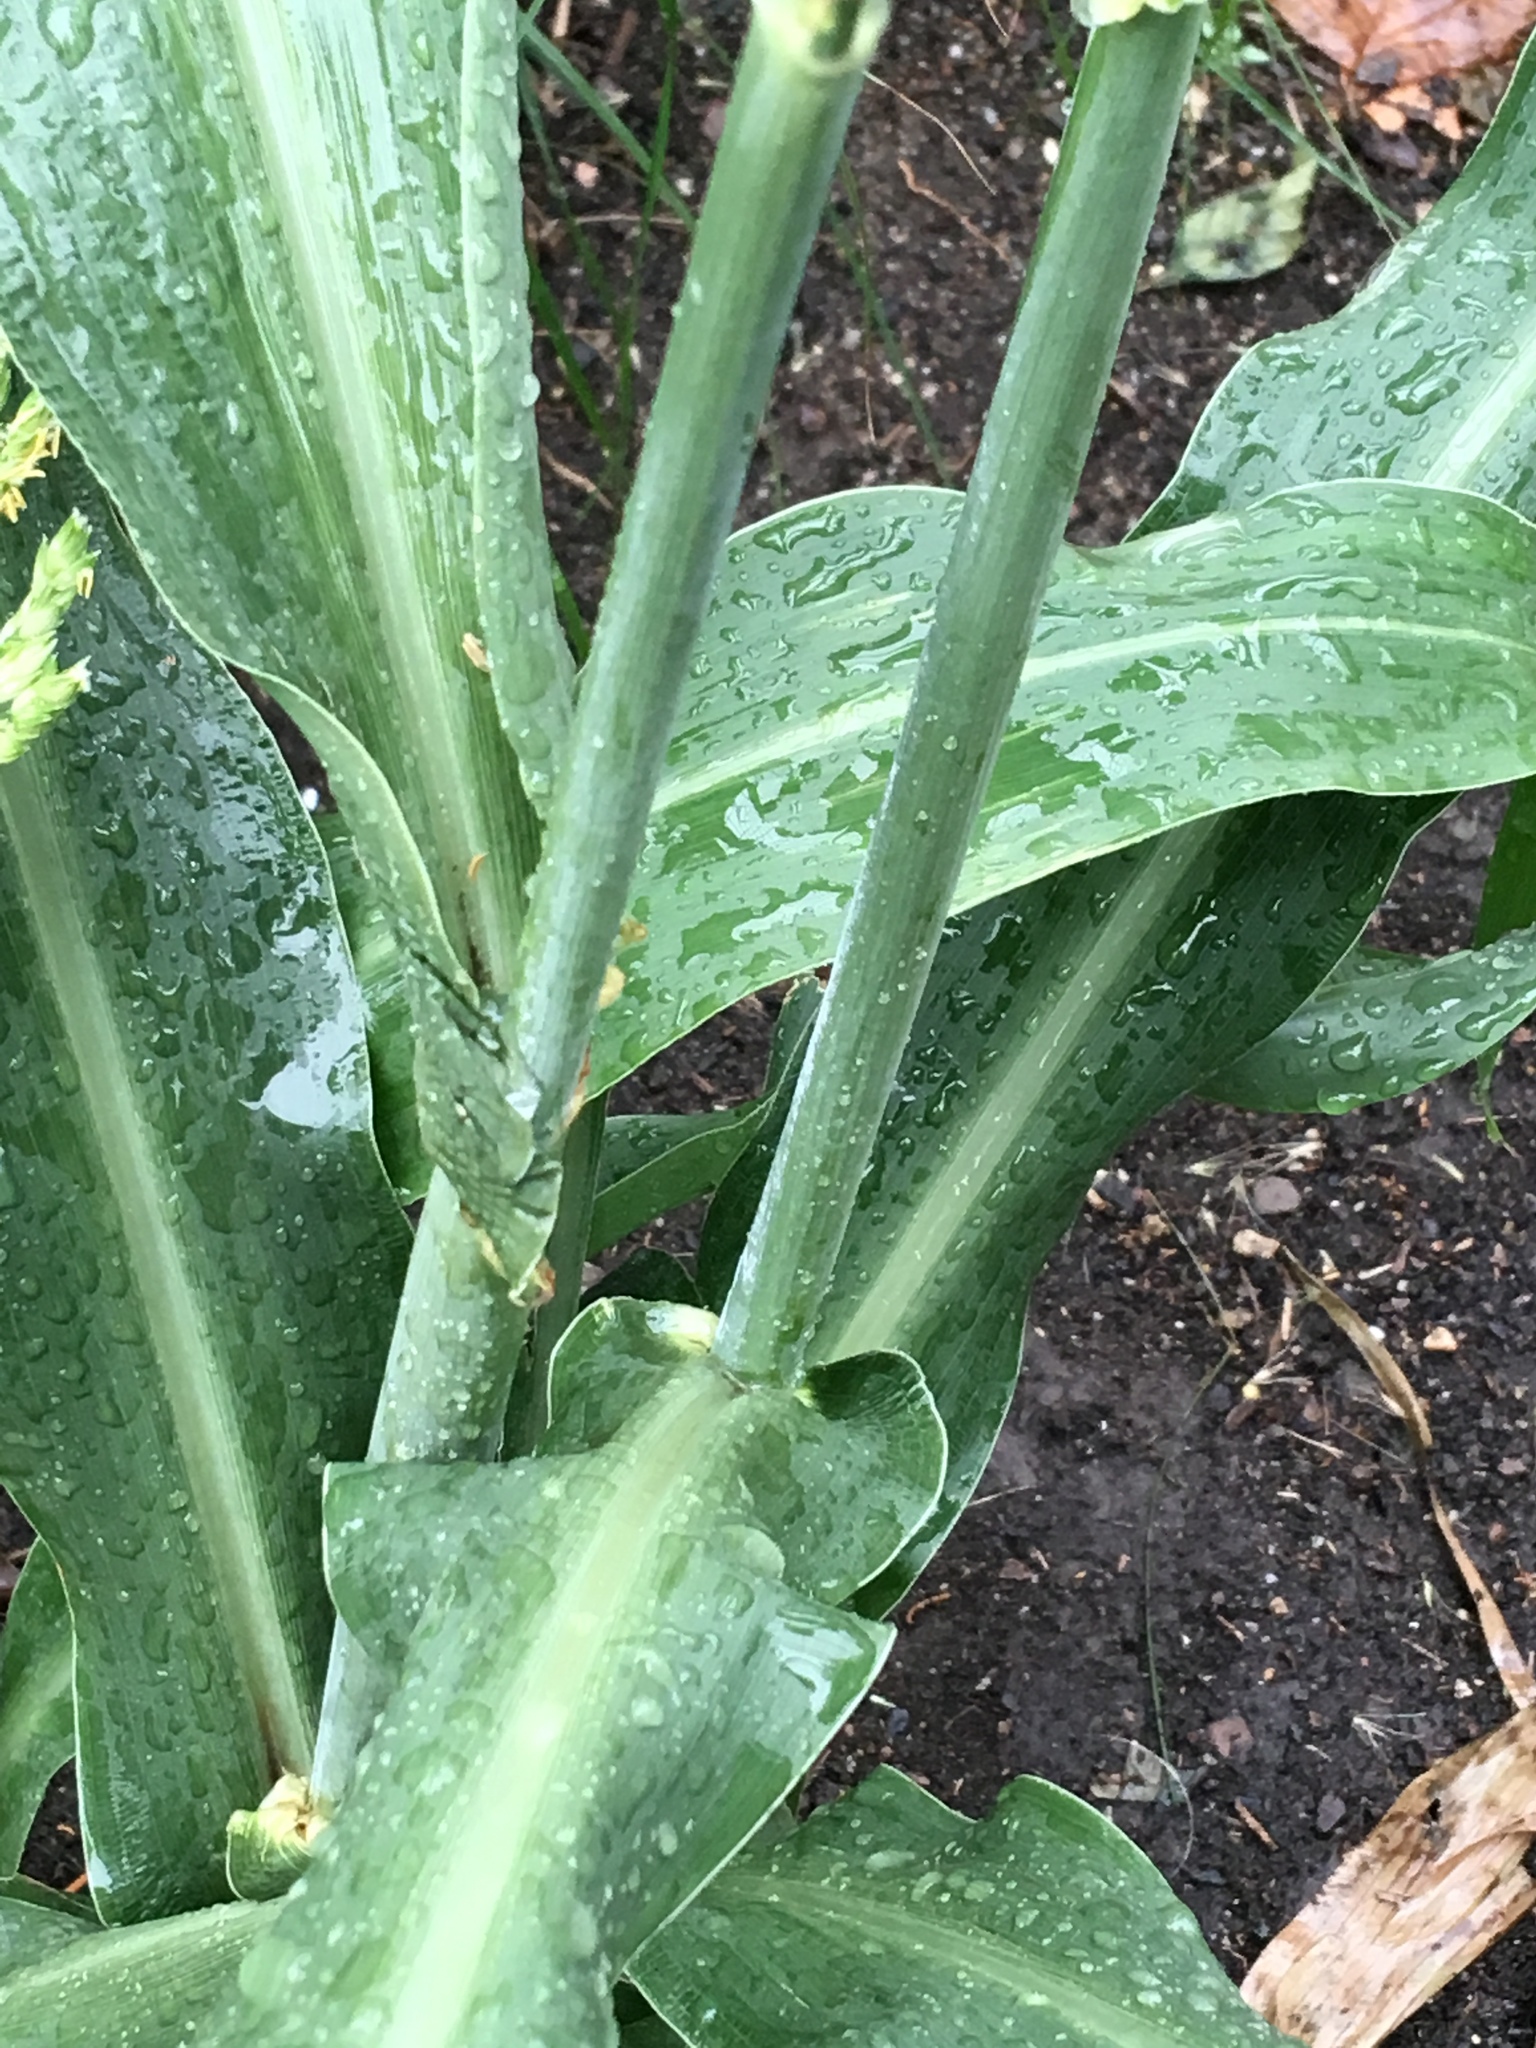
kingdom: Plantae
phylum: Tracheophyta
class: Liliopsida
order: Poales
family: Poaceae
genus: Sorghum
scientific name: Sorghum bicolor
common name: Sorghum
